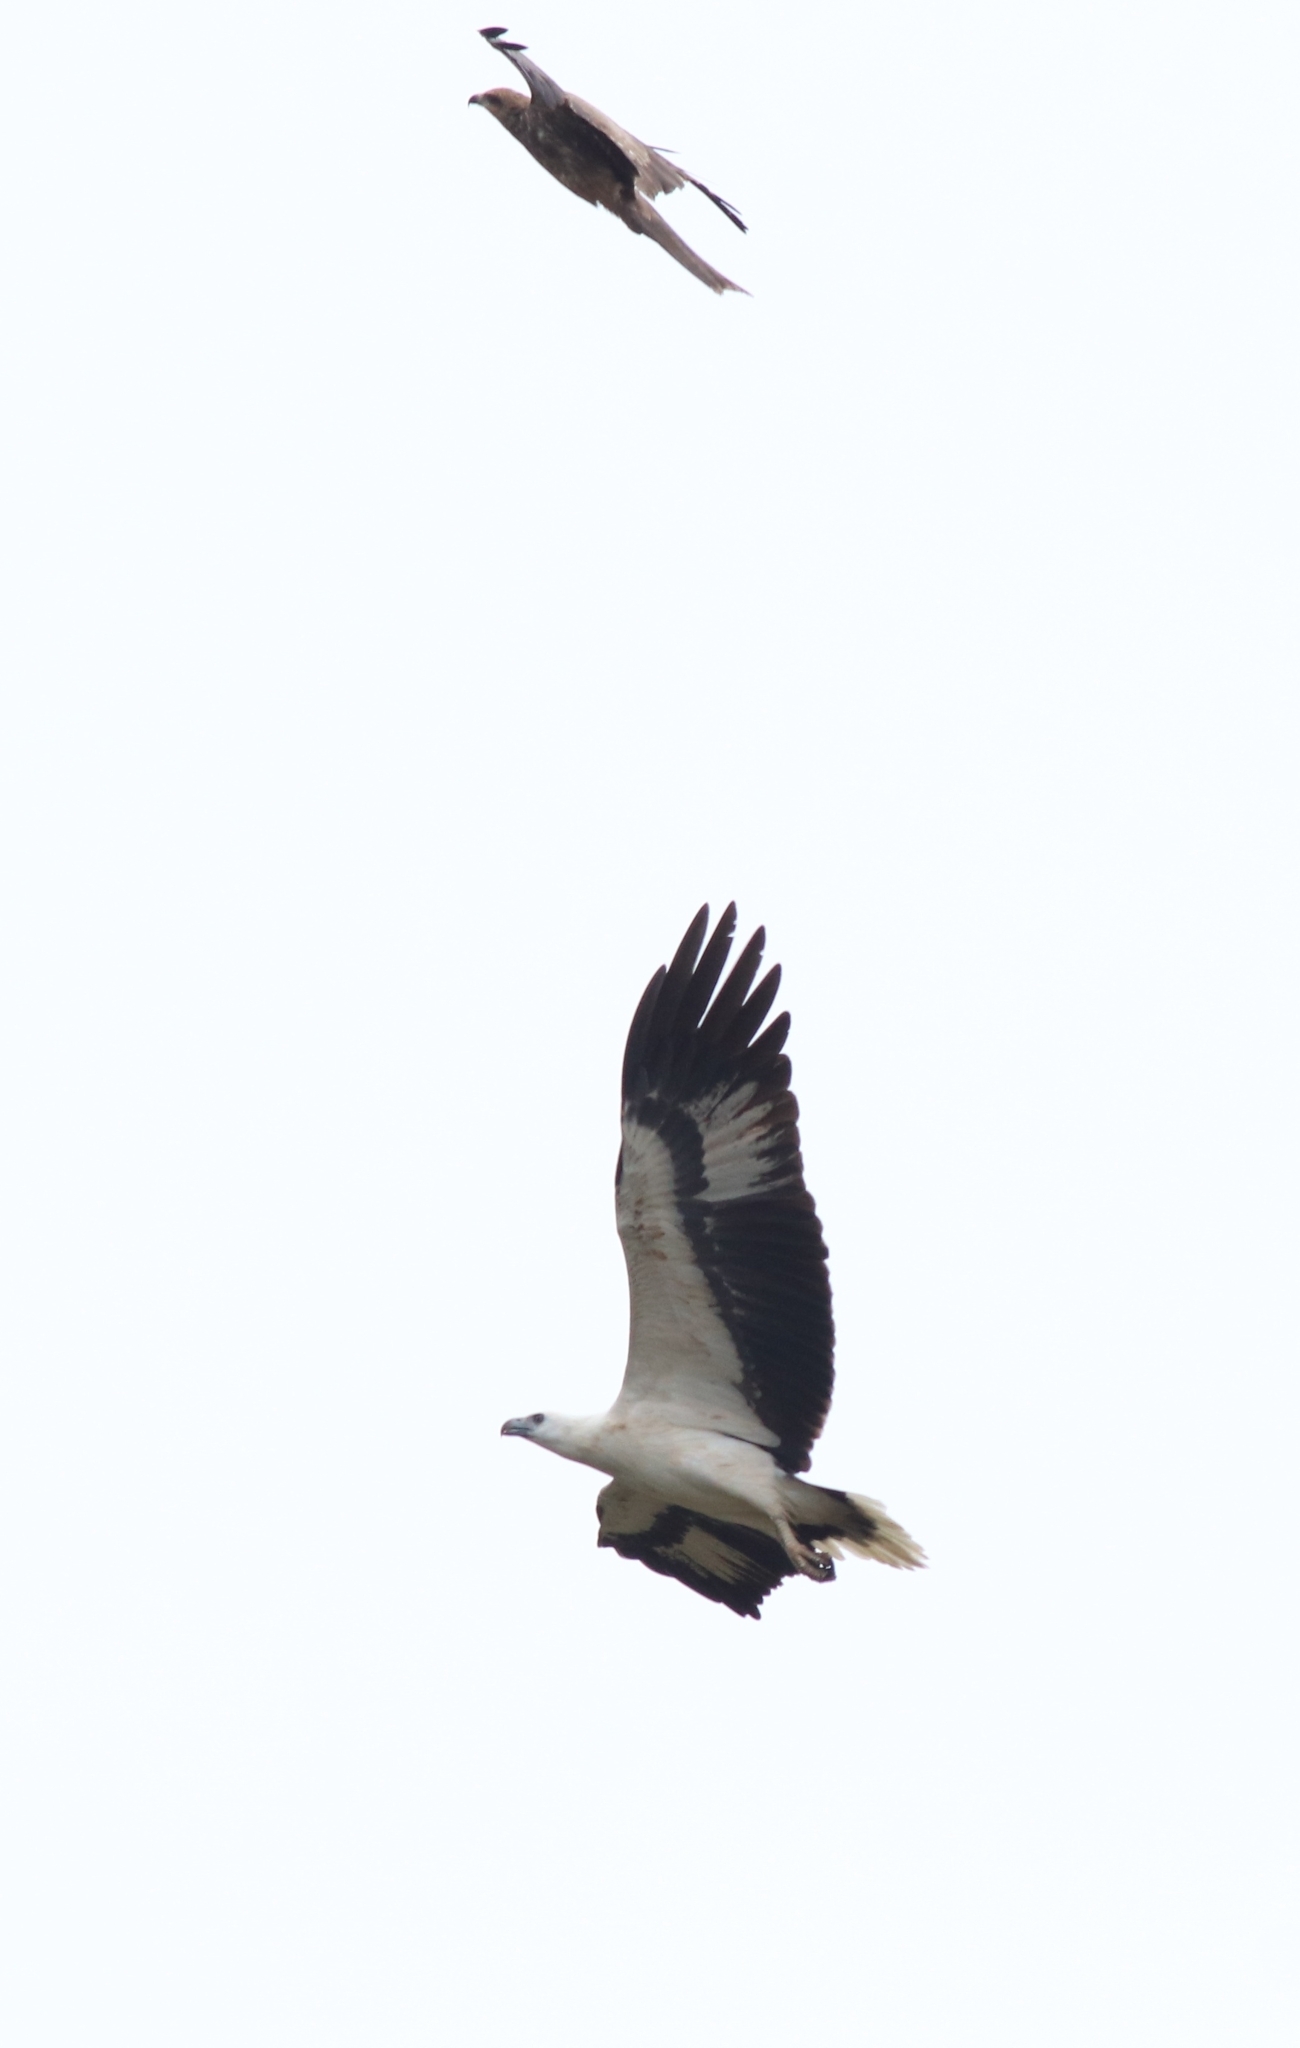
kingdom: Animalia
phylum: Chordata
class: Aves
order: Accipitriformes
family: Accipitridae
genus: Milvus
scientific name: Milvus migrans
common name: Black kite
